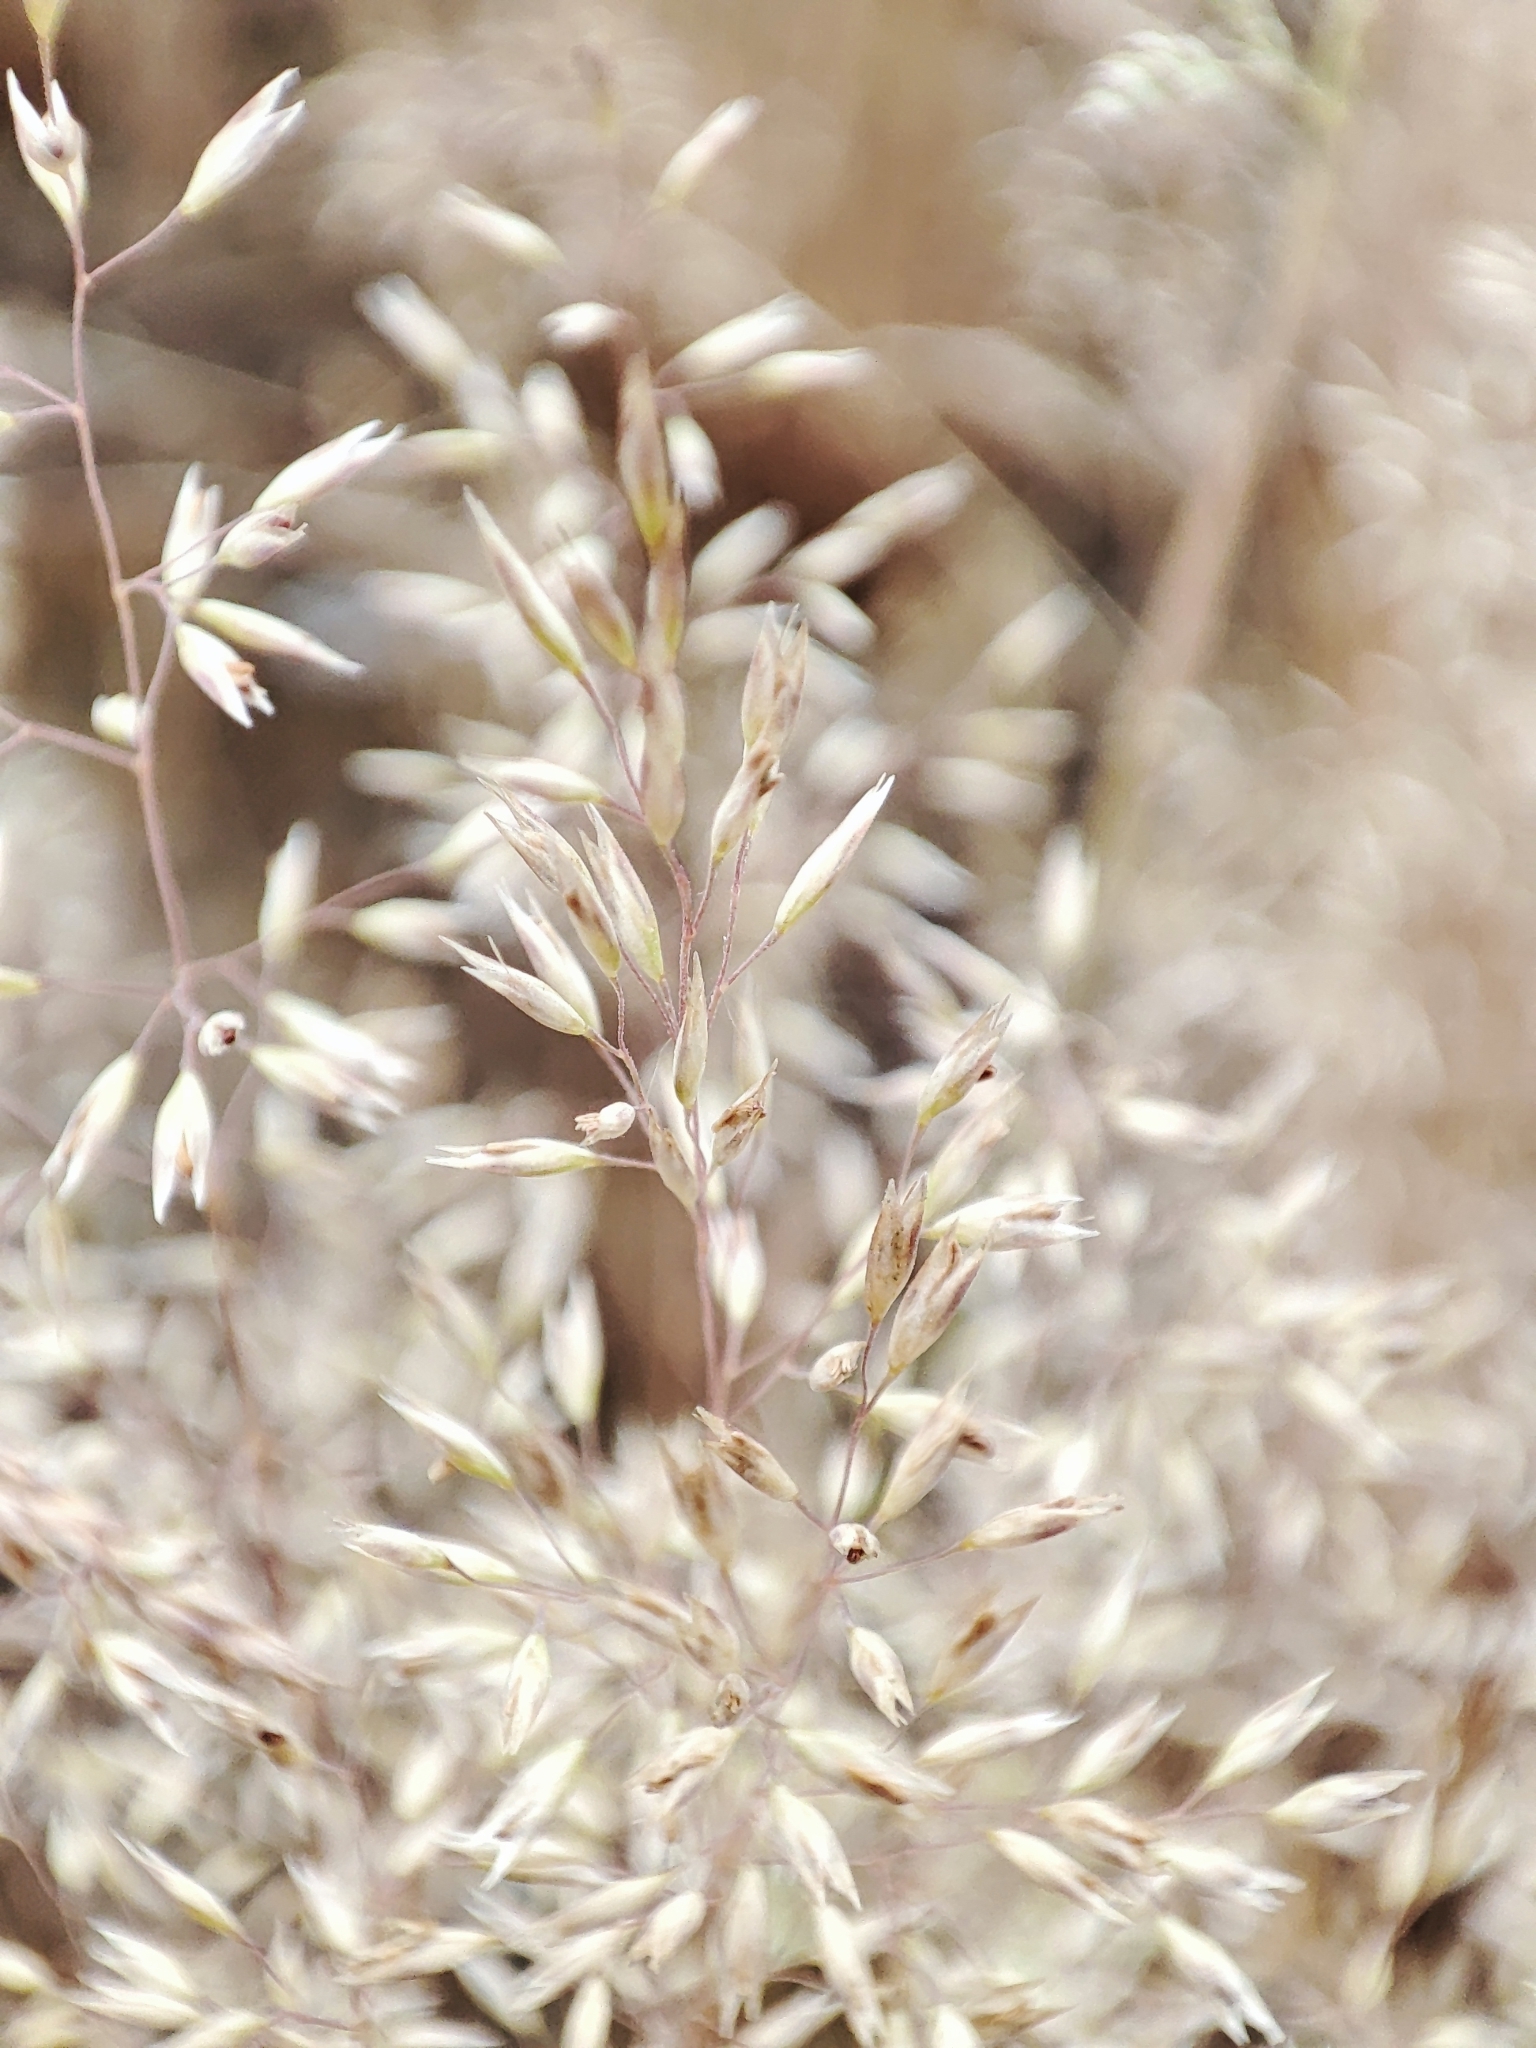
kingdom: Plantae
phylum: Tracheophyta
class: Liliopsida
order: Poales
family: Poaceae
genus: Corynephorus
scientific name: Corynephorus canescens
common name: Grey hair-grass
